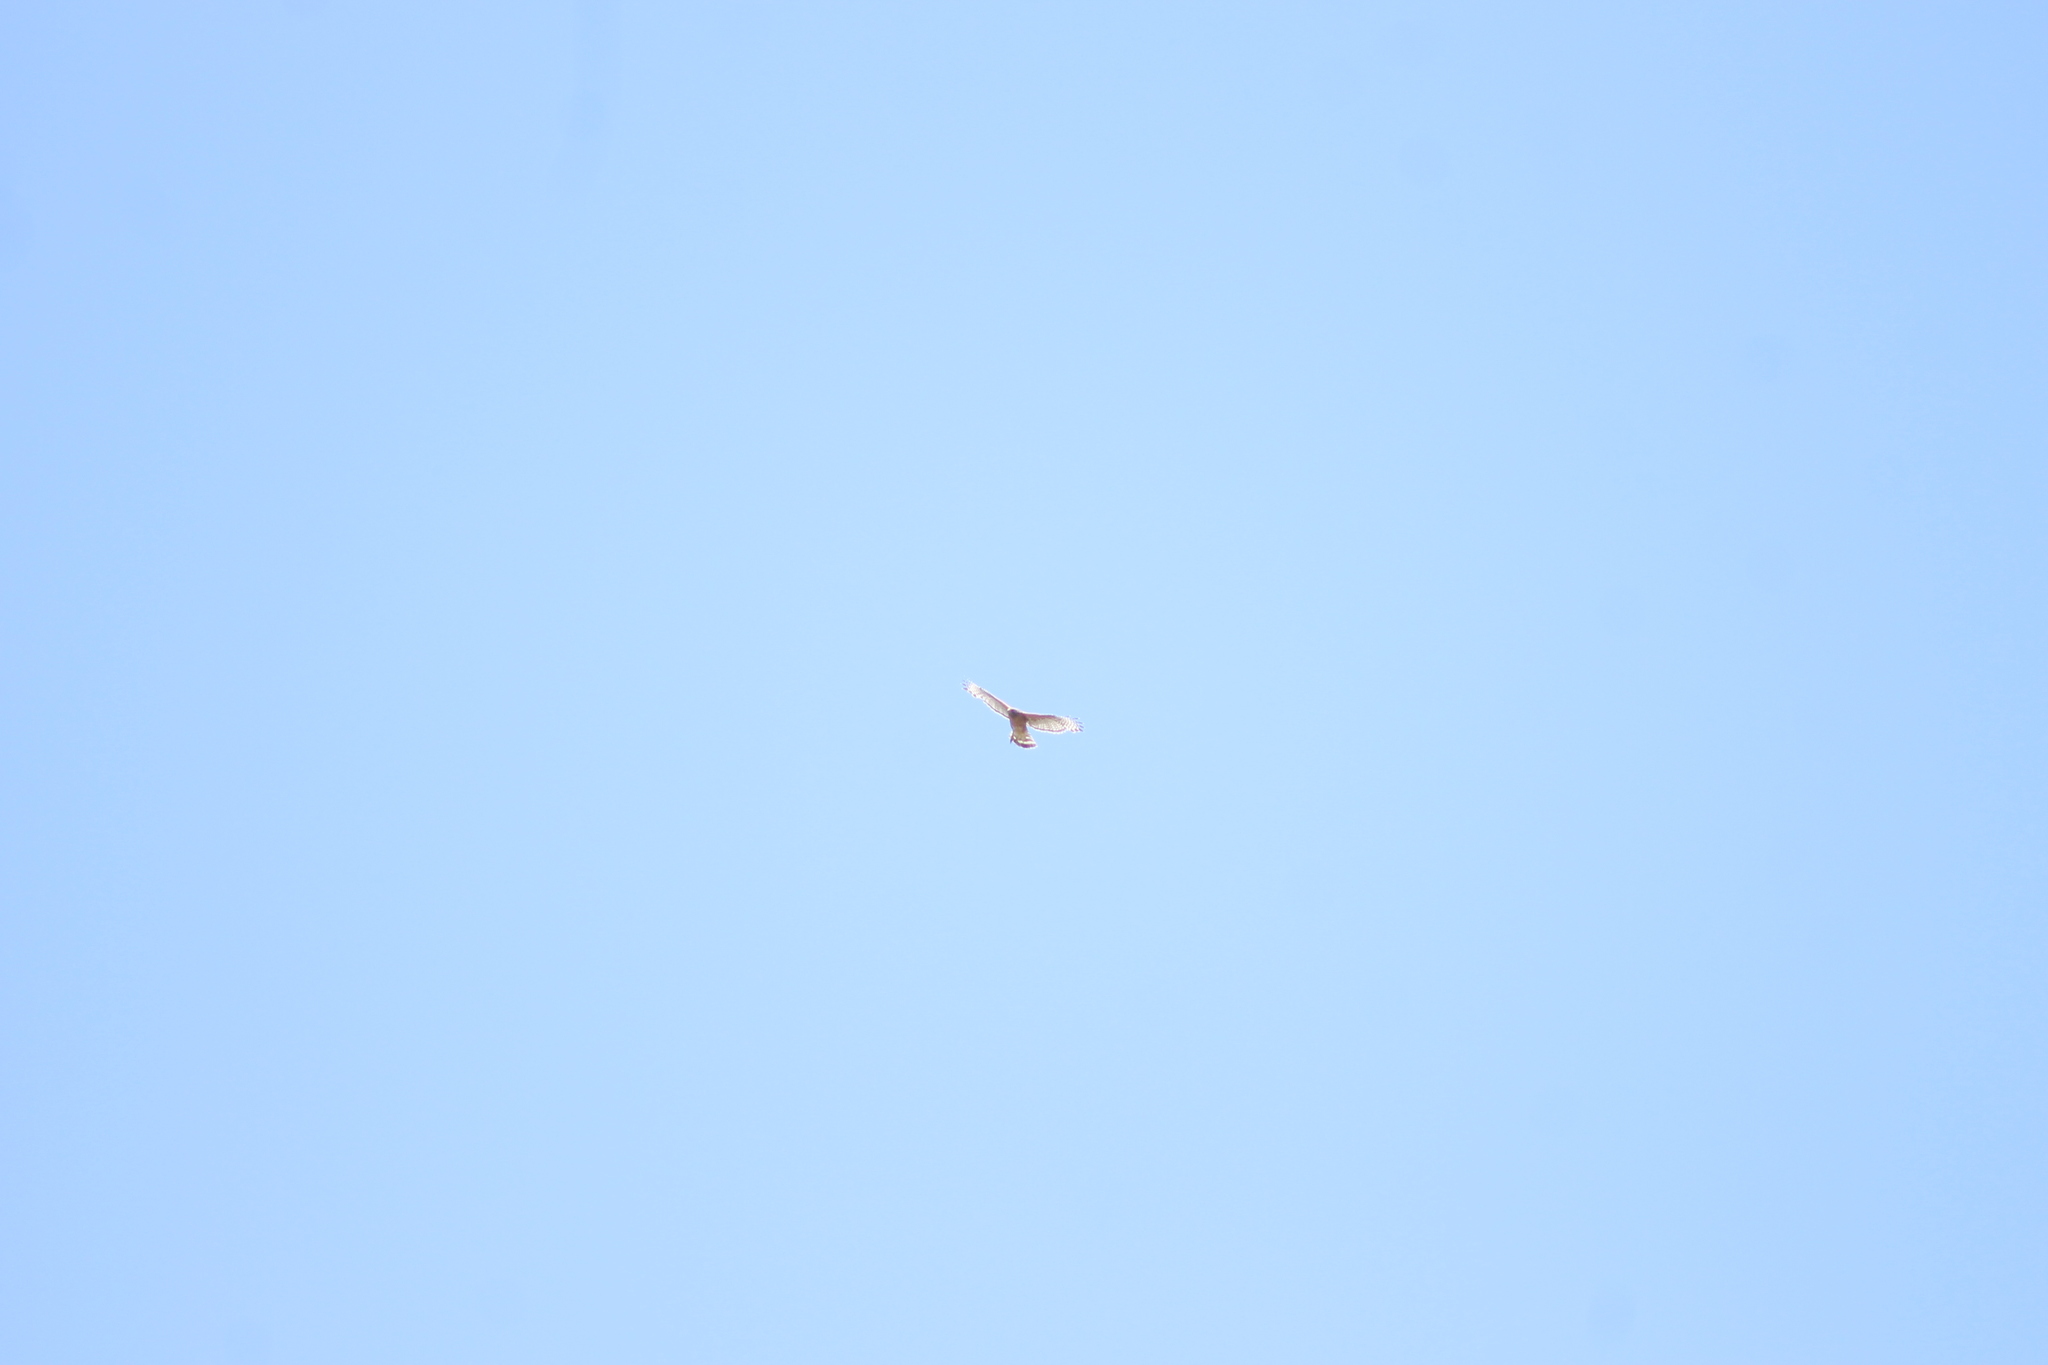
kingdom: Animalia
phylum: Chordata
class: Aves
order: Accipitriformes
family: Accipitridae
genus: Buteo
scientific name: Buteo lineatus
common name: Red-shouldered hawk
